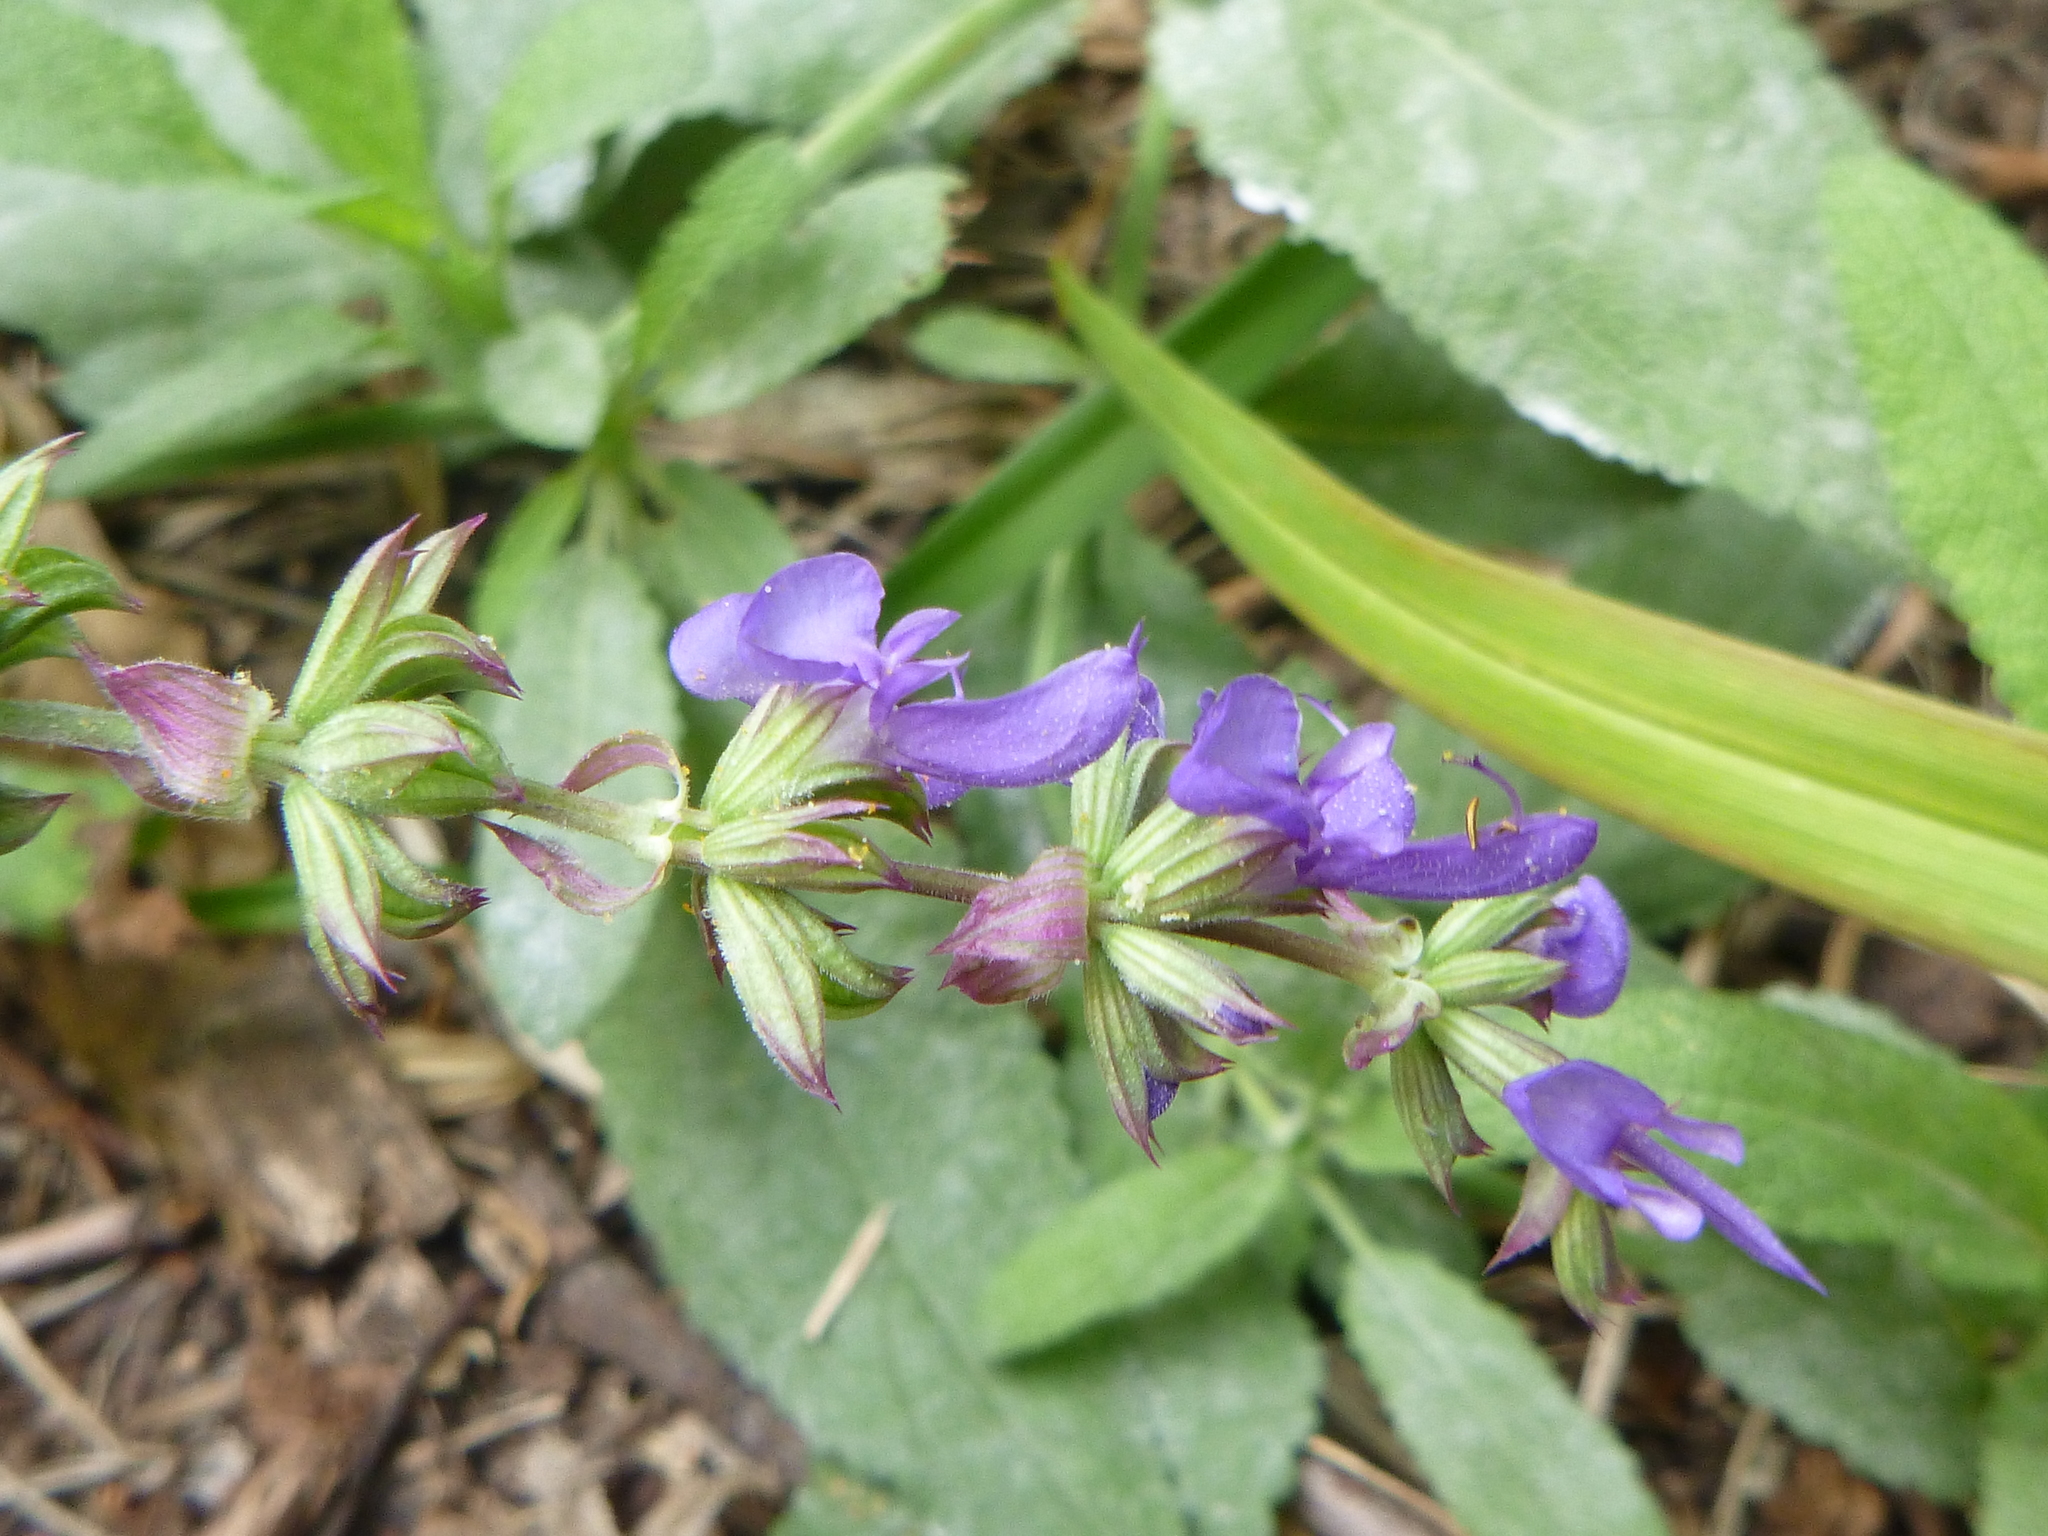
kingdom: Plantae
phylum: Tracheophyta
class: Magnoliopsida
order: Lamiales
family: Lamiaceae
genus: Salvia
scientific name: Salvia pratensis
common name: Meadow sage
